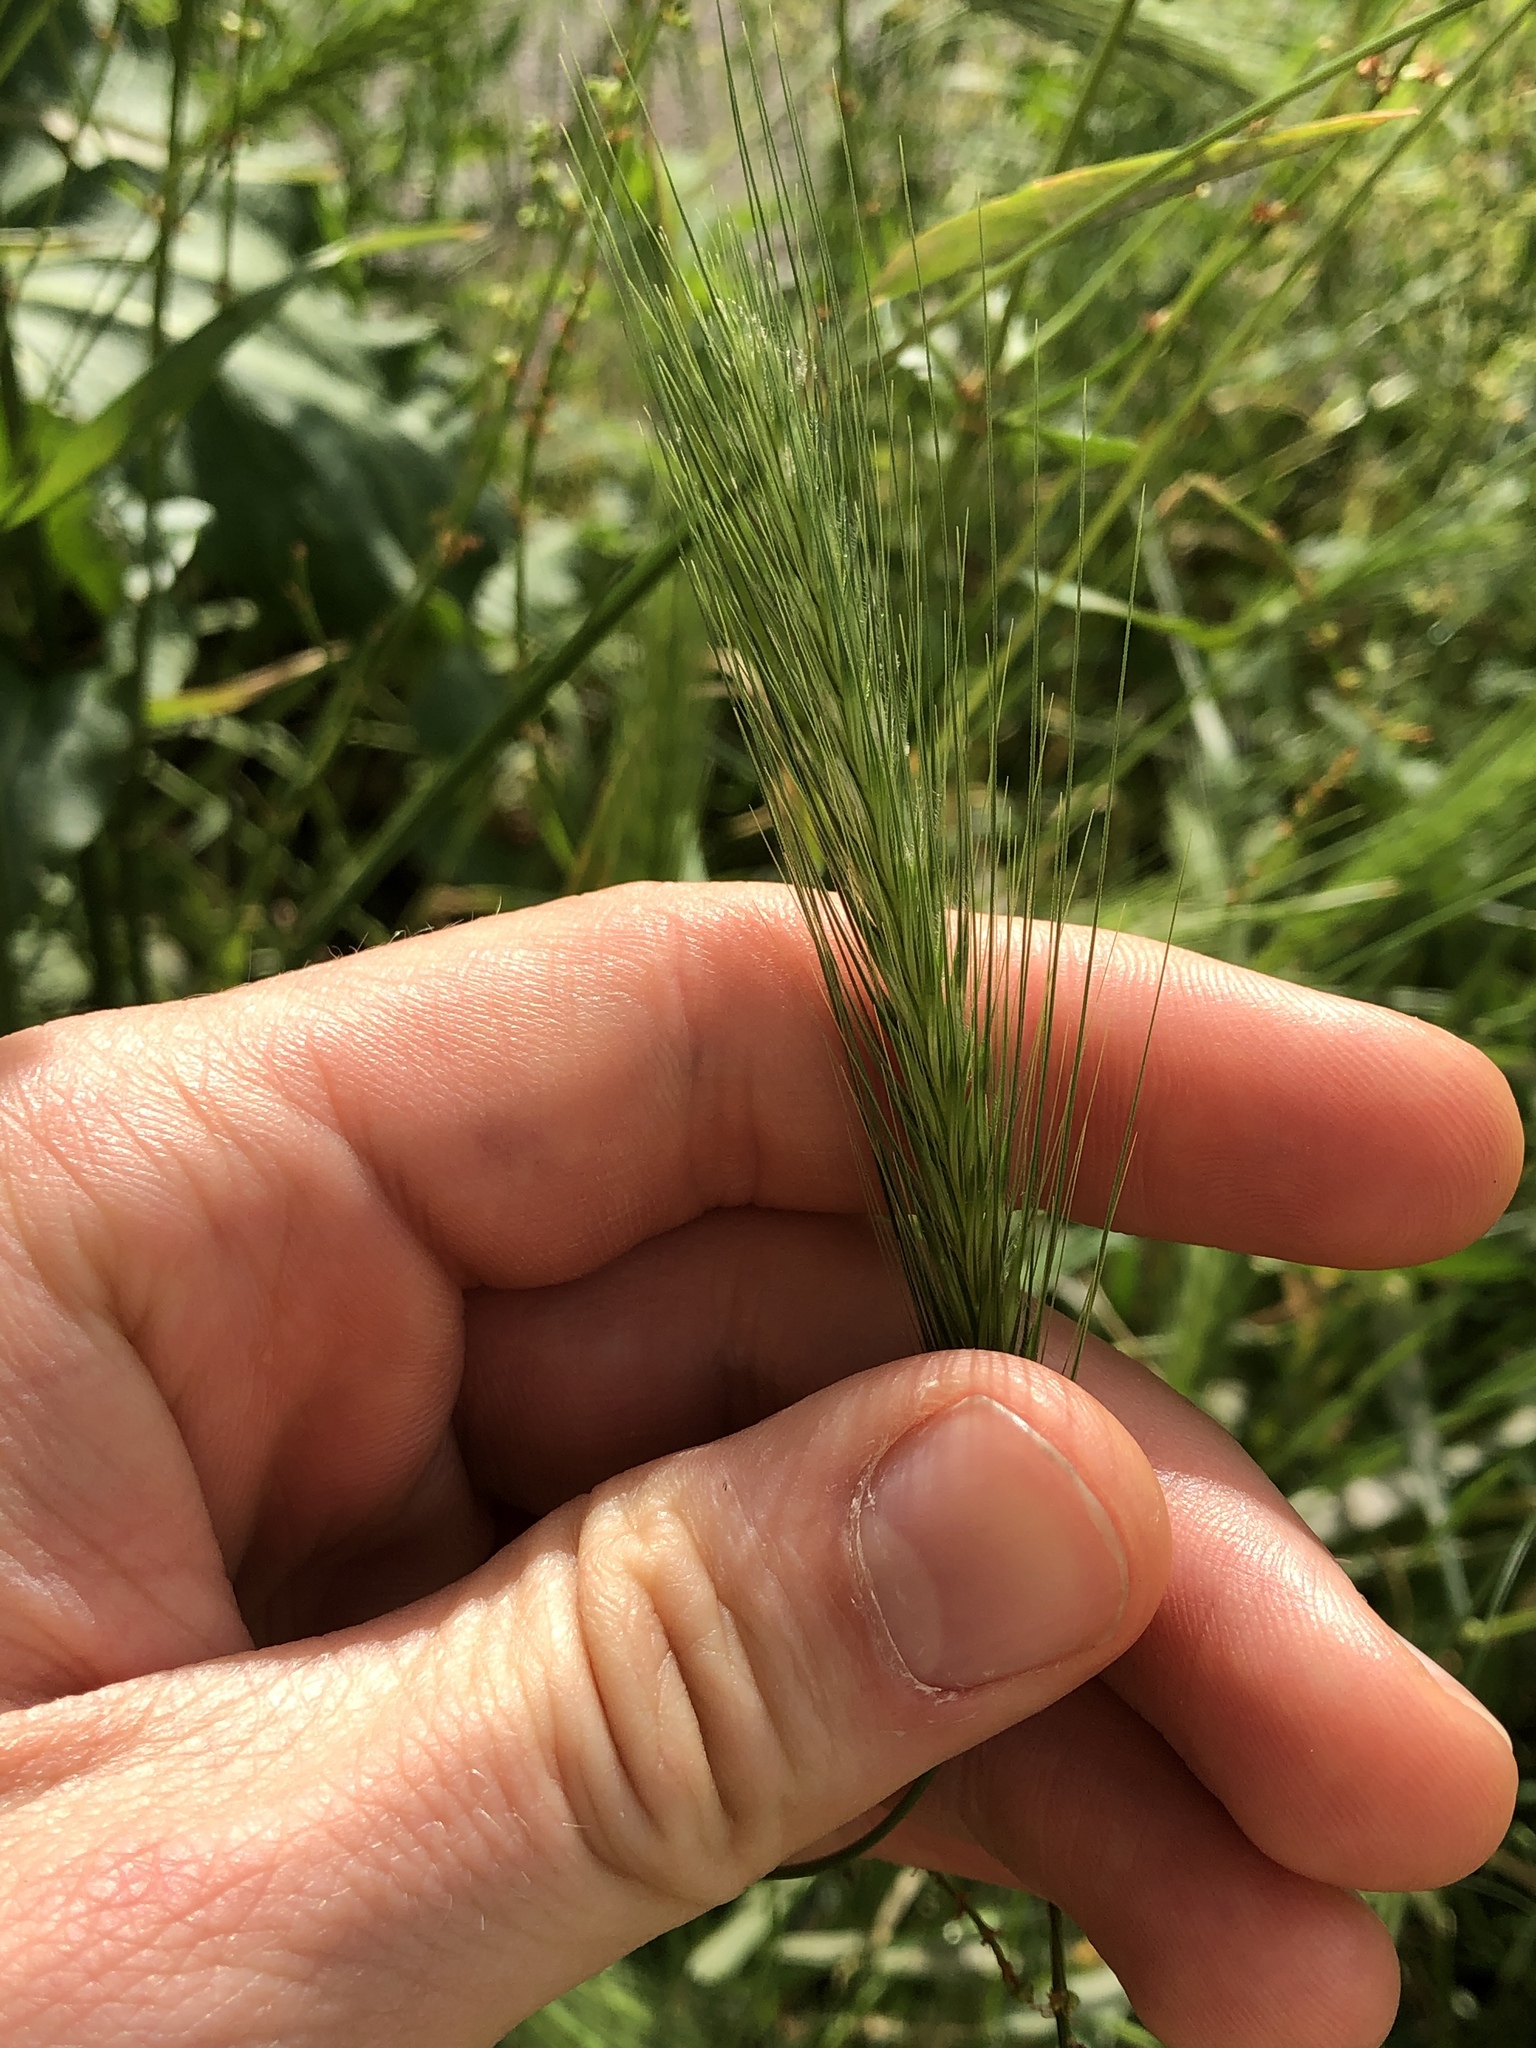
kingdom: Plantae
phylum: Tracheophyta
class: Liliopsida
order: Poales
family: Poaceae
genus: Hordeum
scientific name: Hordeum murinum
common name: Wall barley
